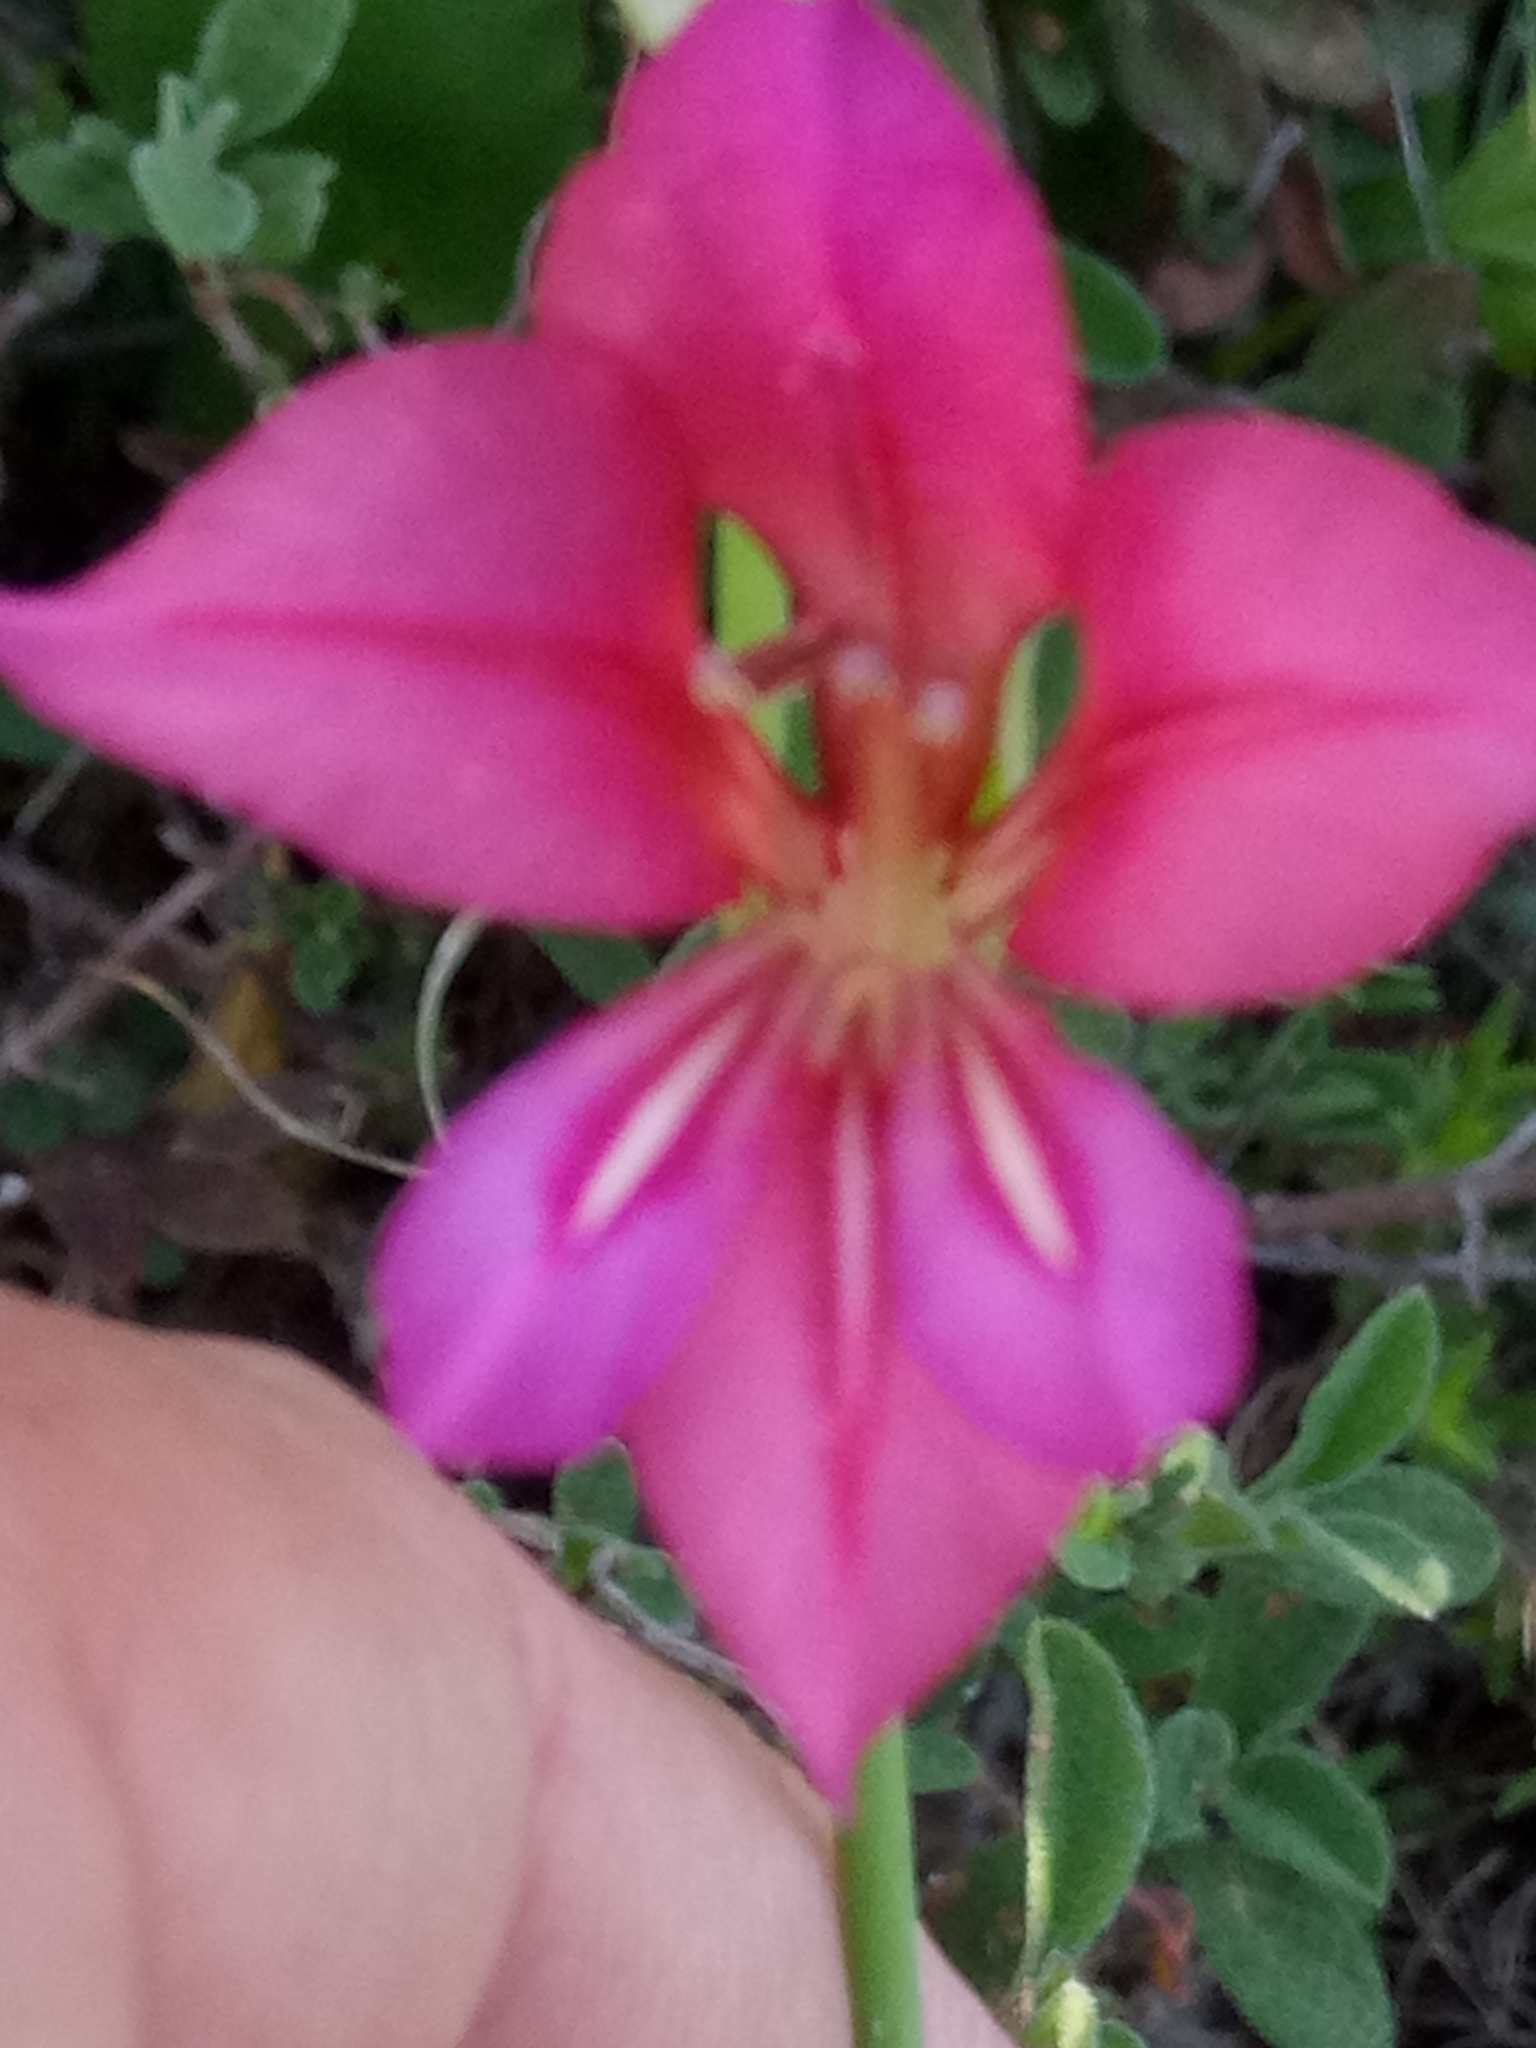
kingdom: Plantae
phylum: Tracheophyta
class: Liliopsida
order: Asparagales
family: Iridaceae
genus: Gladiolus
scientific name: Gladiolus dubius
